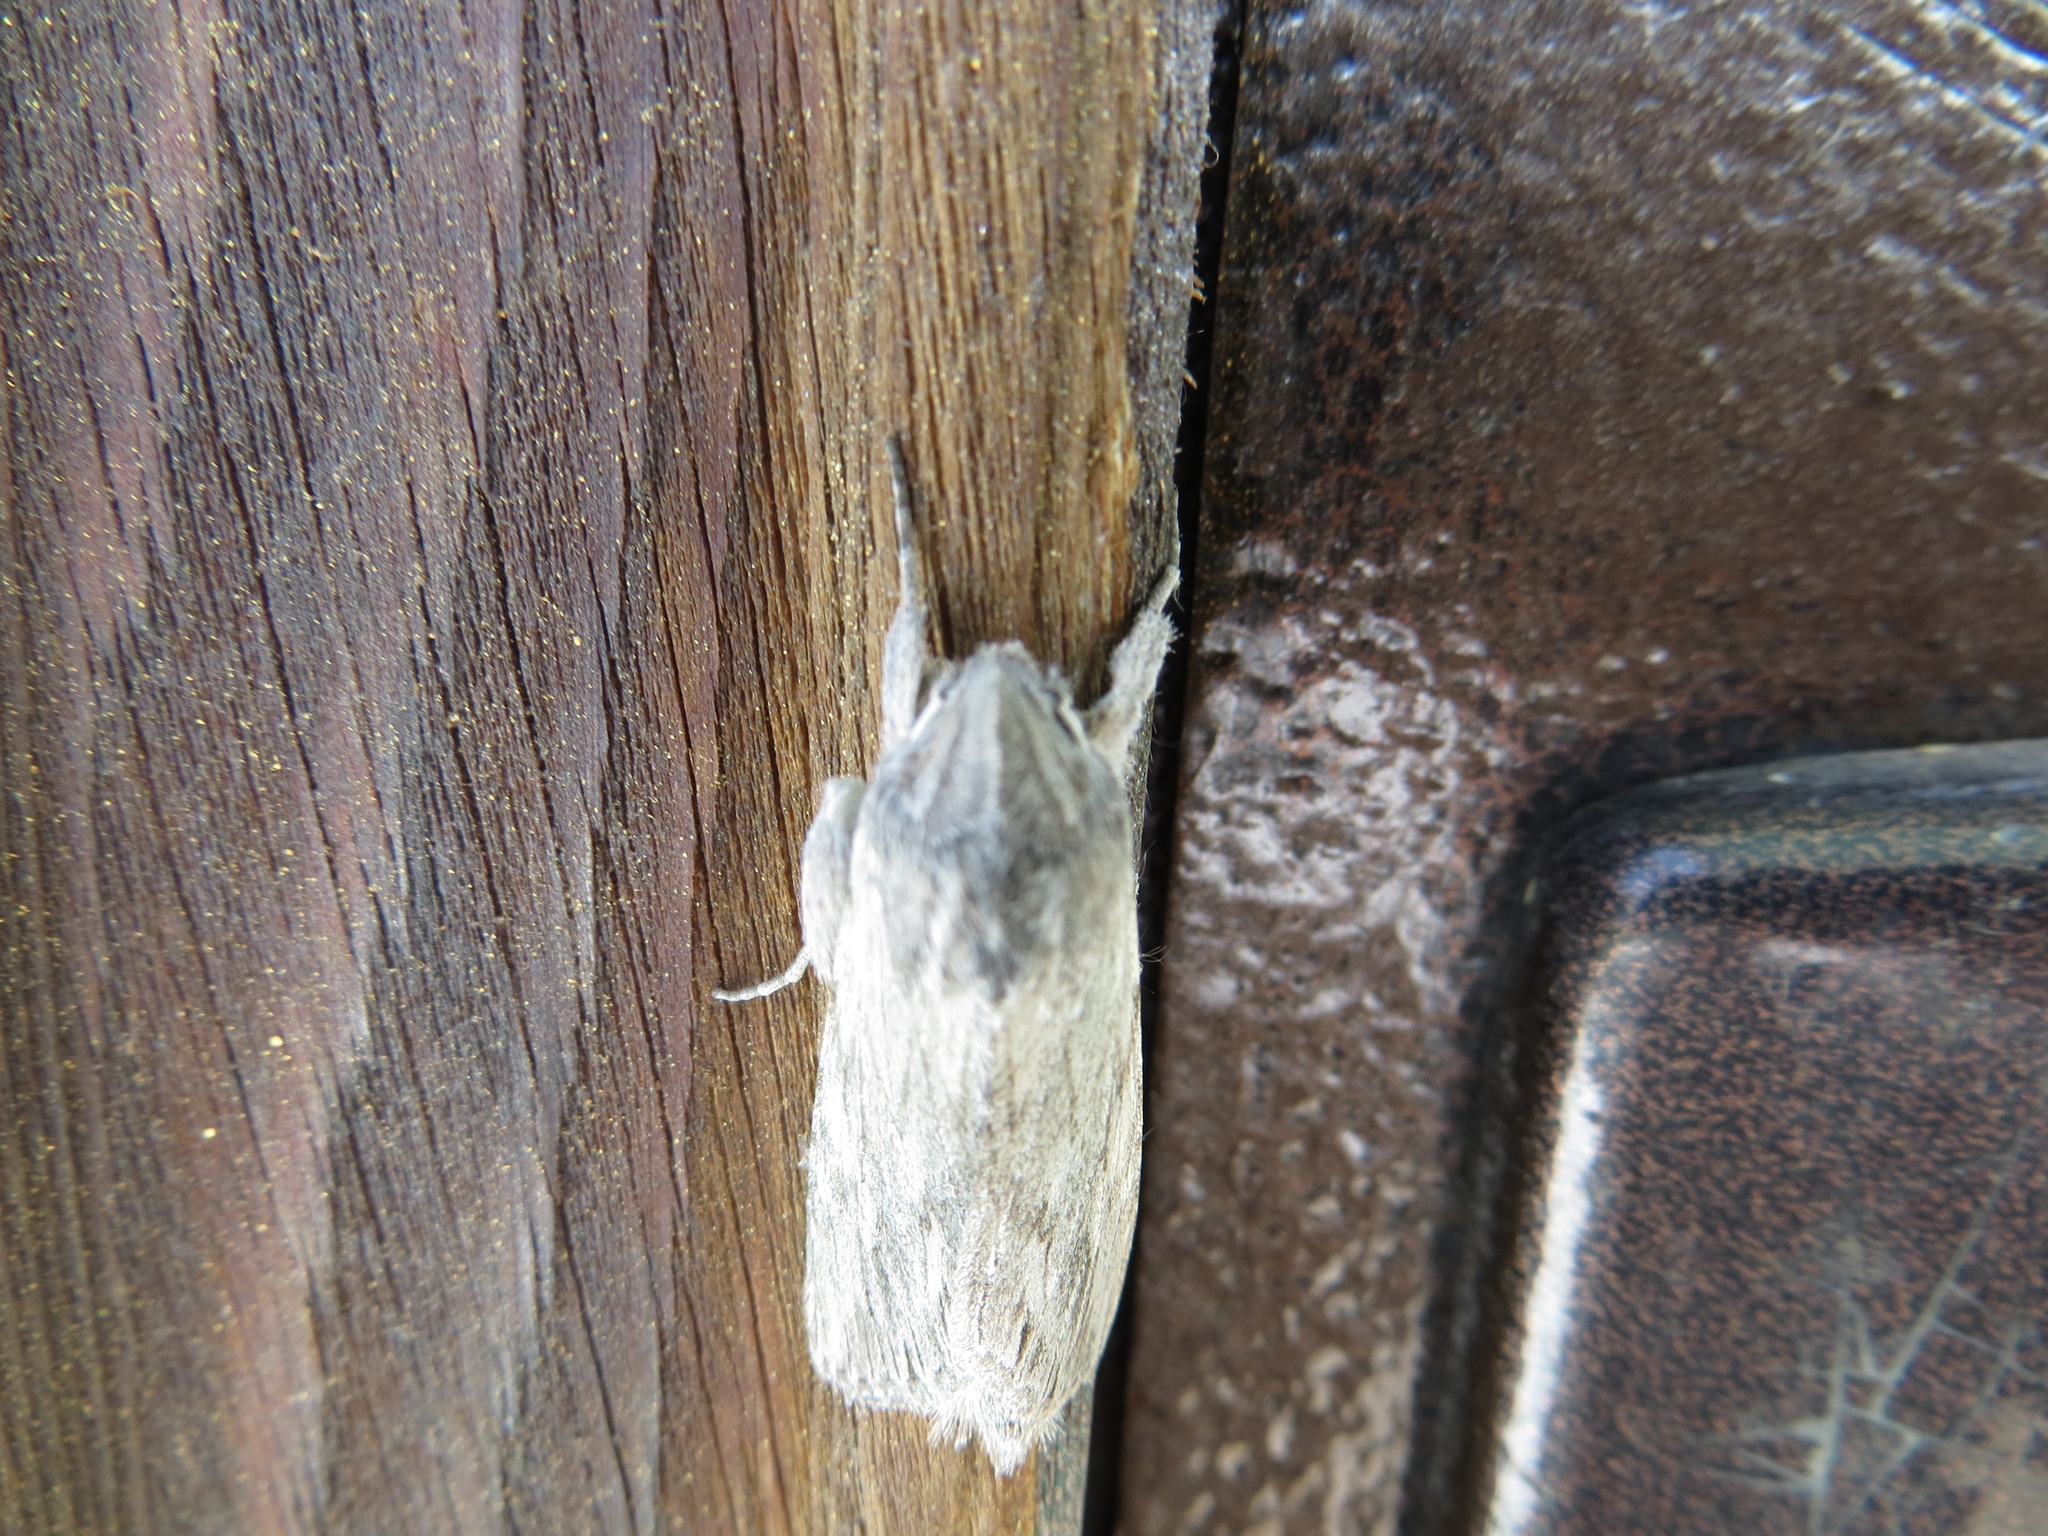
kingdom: Animalia
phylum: Arthropoda
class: Insecta
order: Lepidoptera
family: Noctuidae
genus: Cucullia
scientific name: Cucullia pustulata
